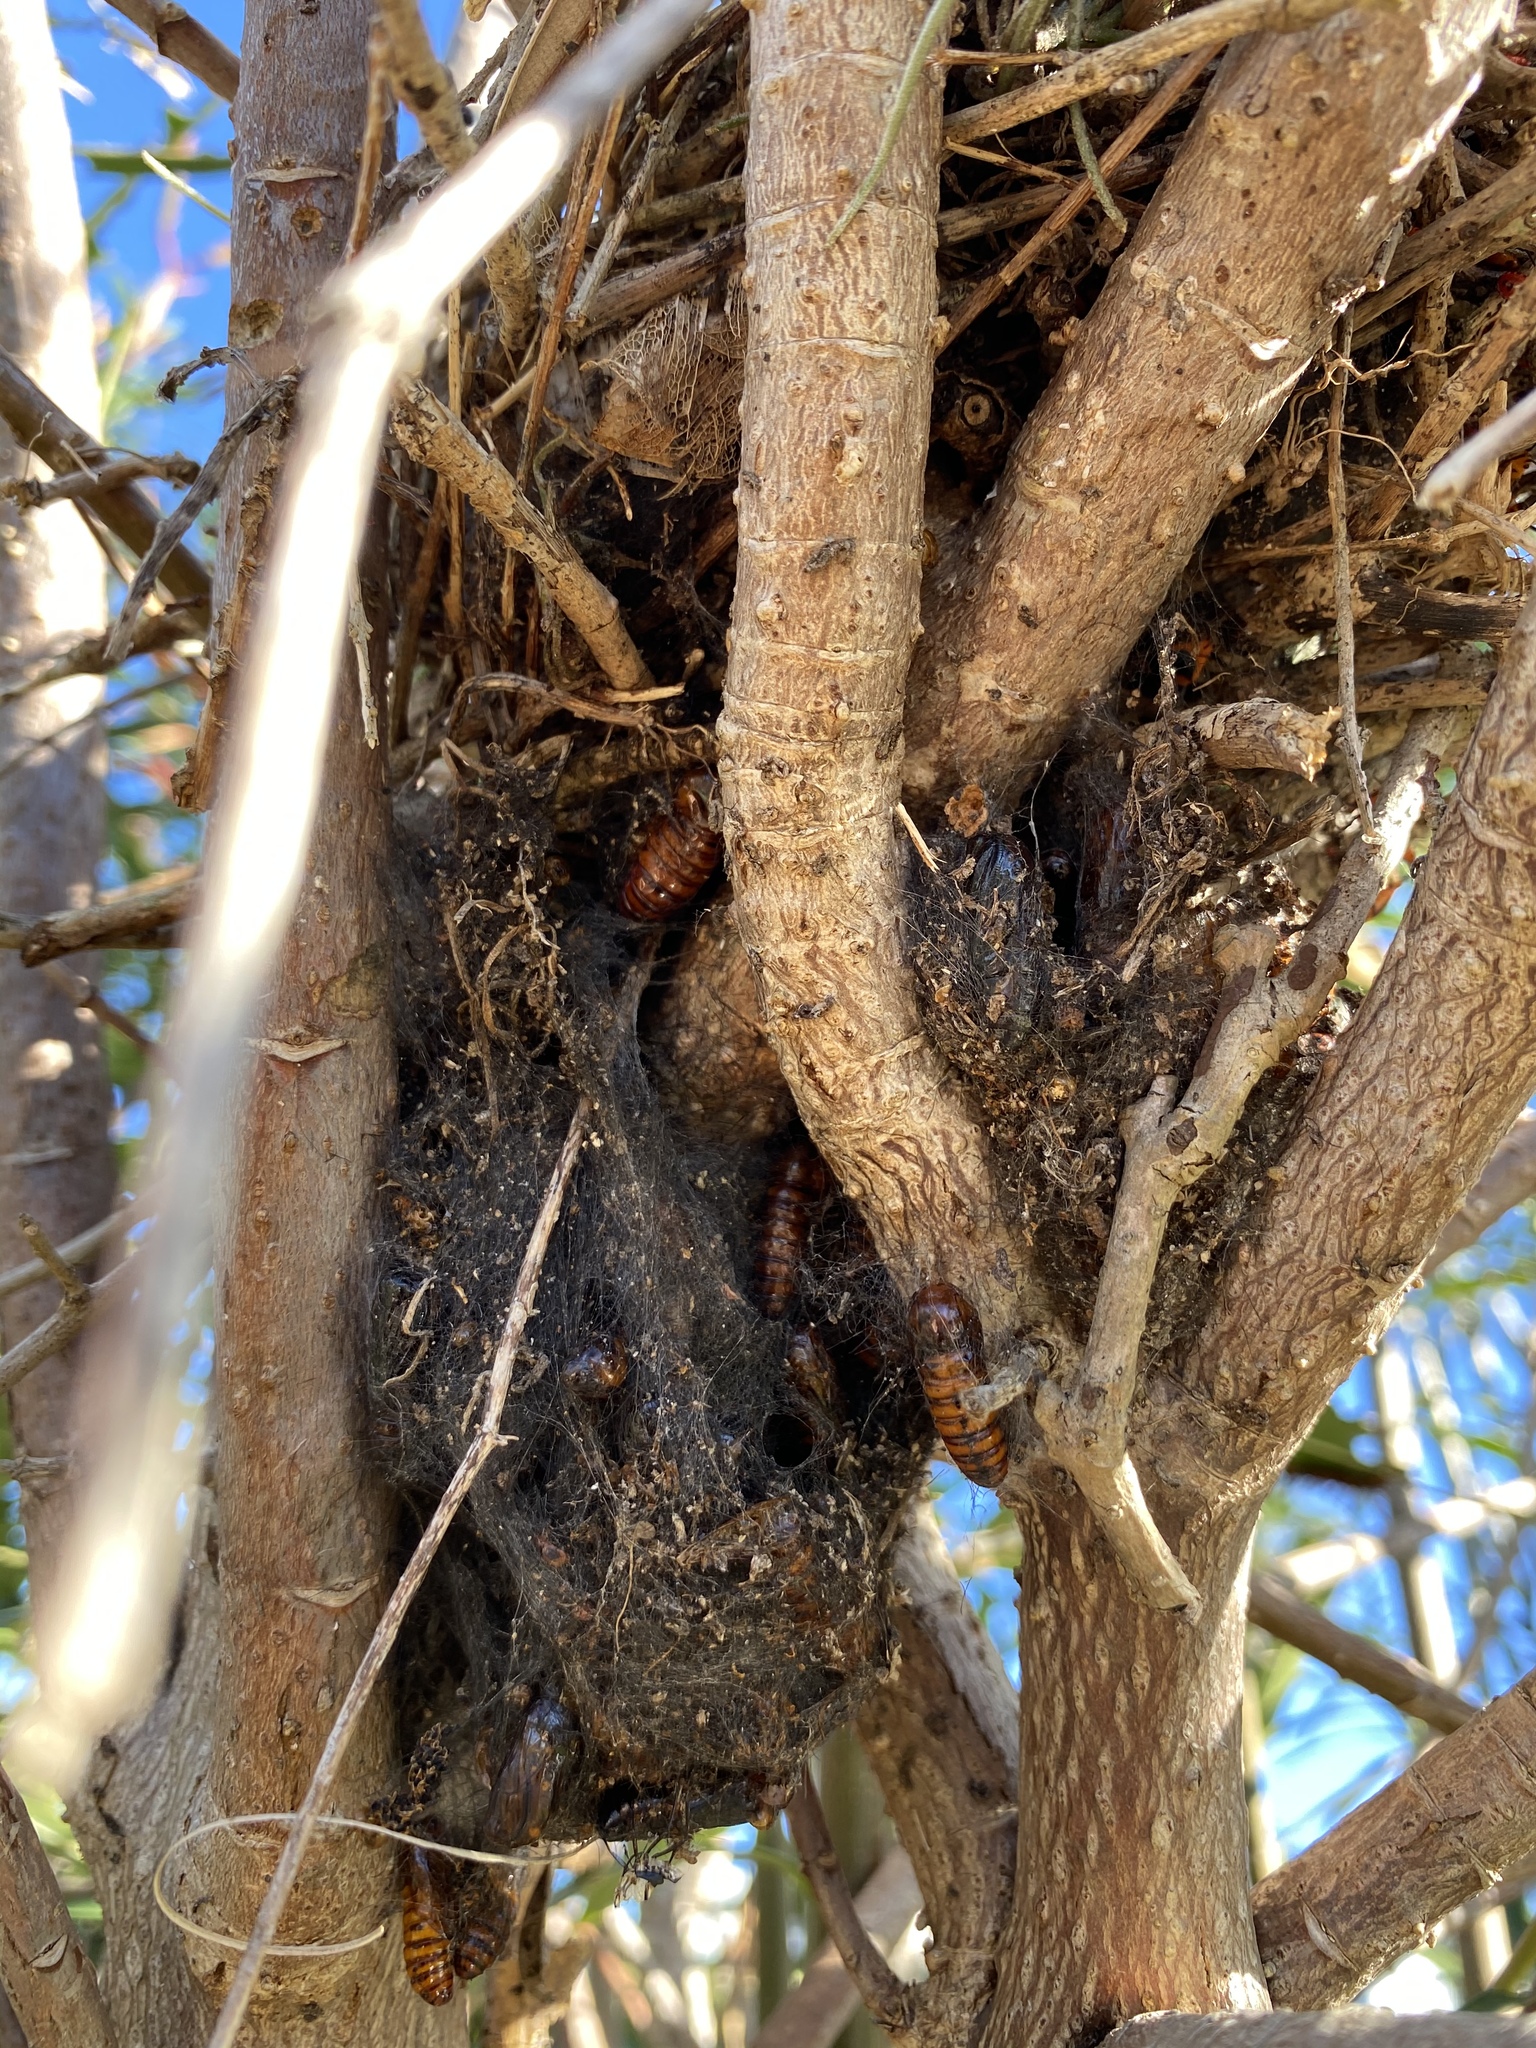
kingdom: Animalia
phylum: Arthropoda
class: Insecta
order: Lepidoptera
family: Erebidae
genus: Syntomeida
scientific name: Syntomeida epilais
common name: Polka-dot wasp moth
